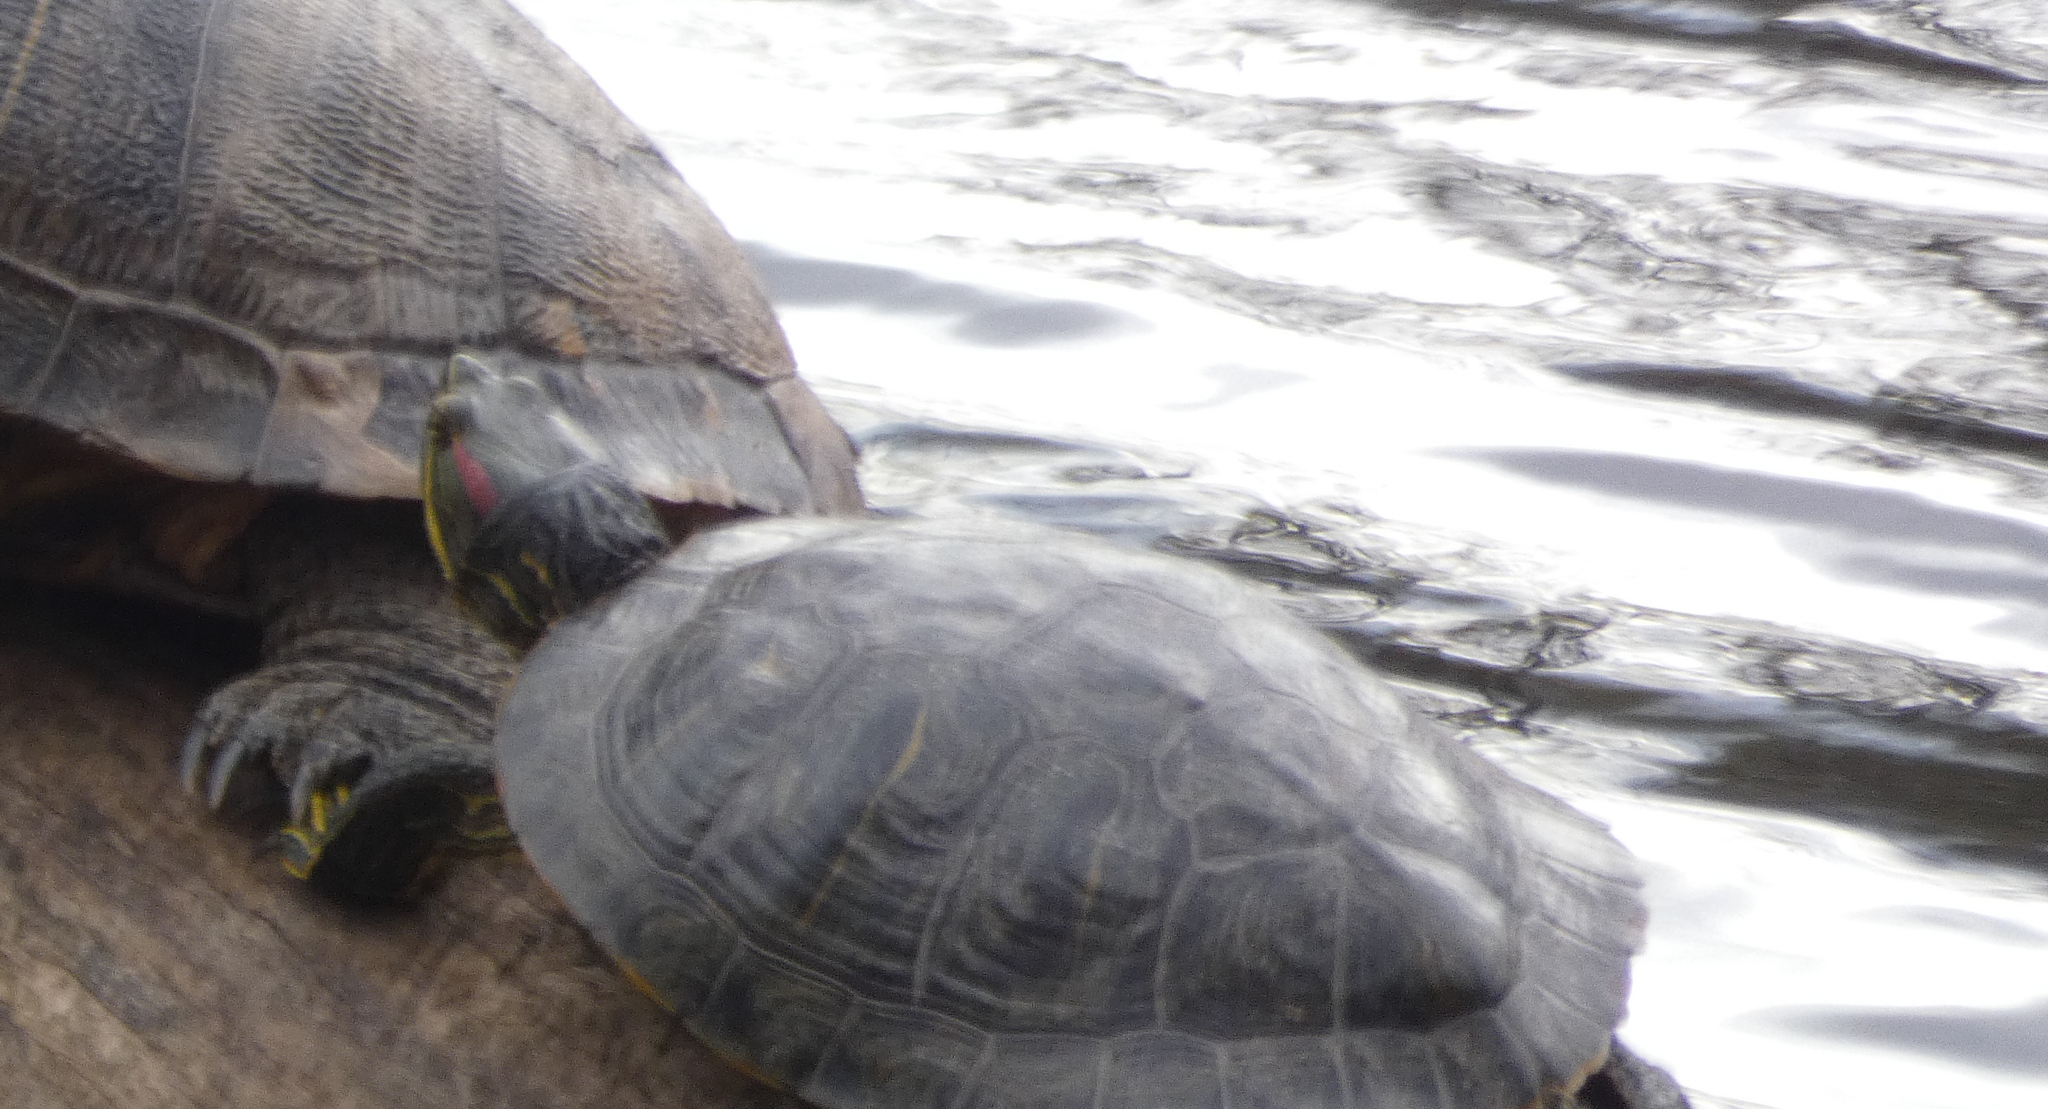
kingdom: Animalia
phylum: Chordata
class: Testudines
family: Emydidae
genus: Trachemys
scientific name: Trachemys scripta
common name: Slider
